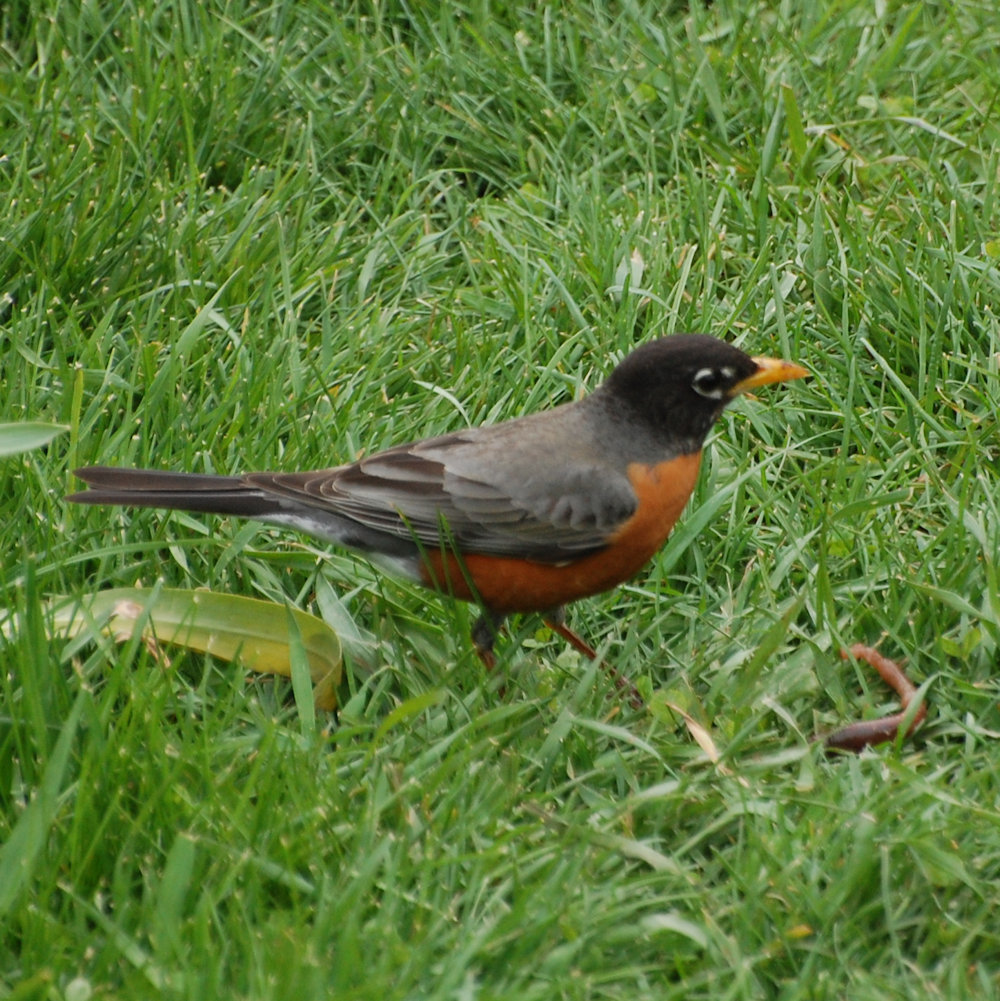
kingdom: Animalia
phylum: Chordata
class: Aves
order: Passeriformes
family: Turdidae
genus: Turdus
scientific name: Turdus migratorius
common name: American robin
